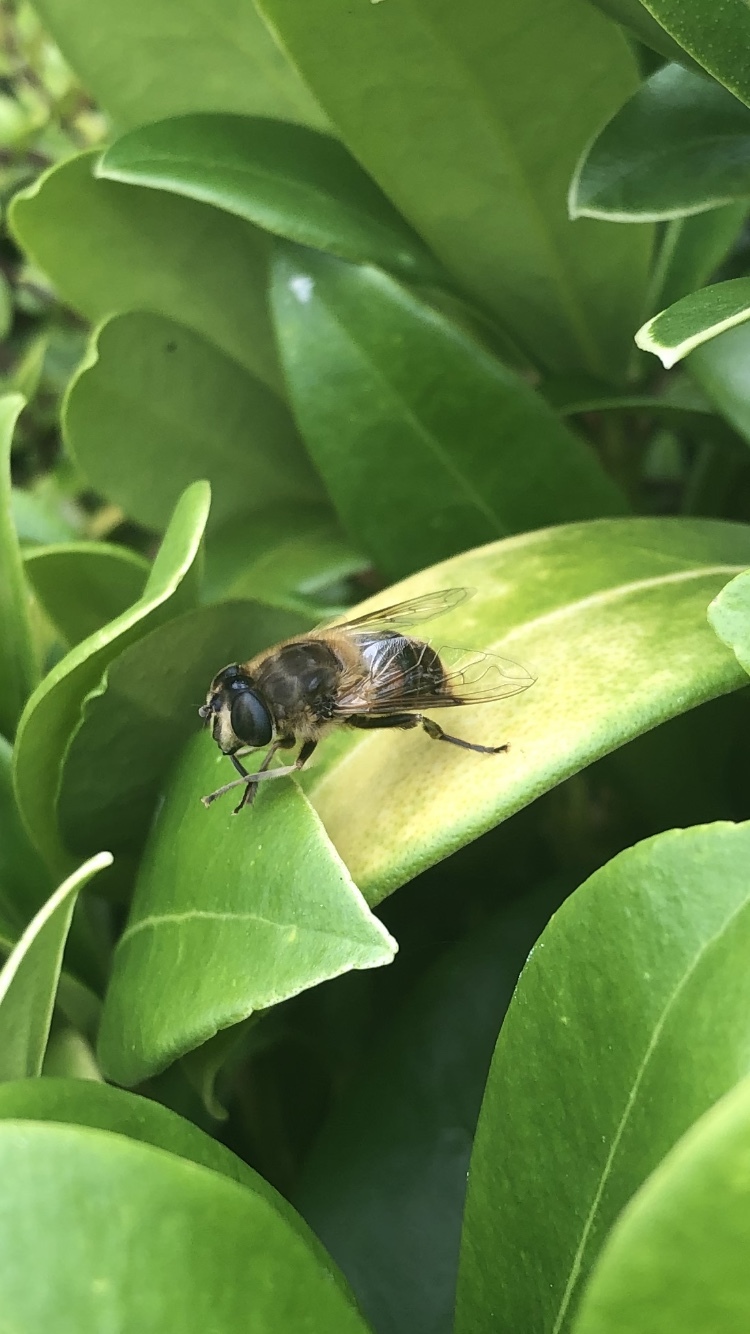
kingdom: Animalia
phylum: Arthropoda
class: Insecta
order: Diptera
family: Syrphidae
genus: Eristalis
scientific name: Eristalis tenax
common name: Drone fly
